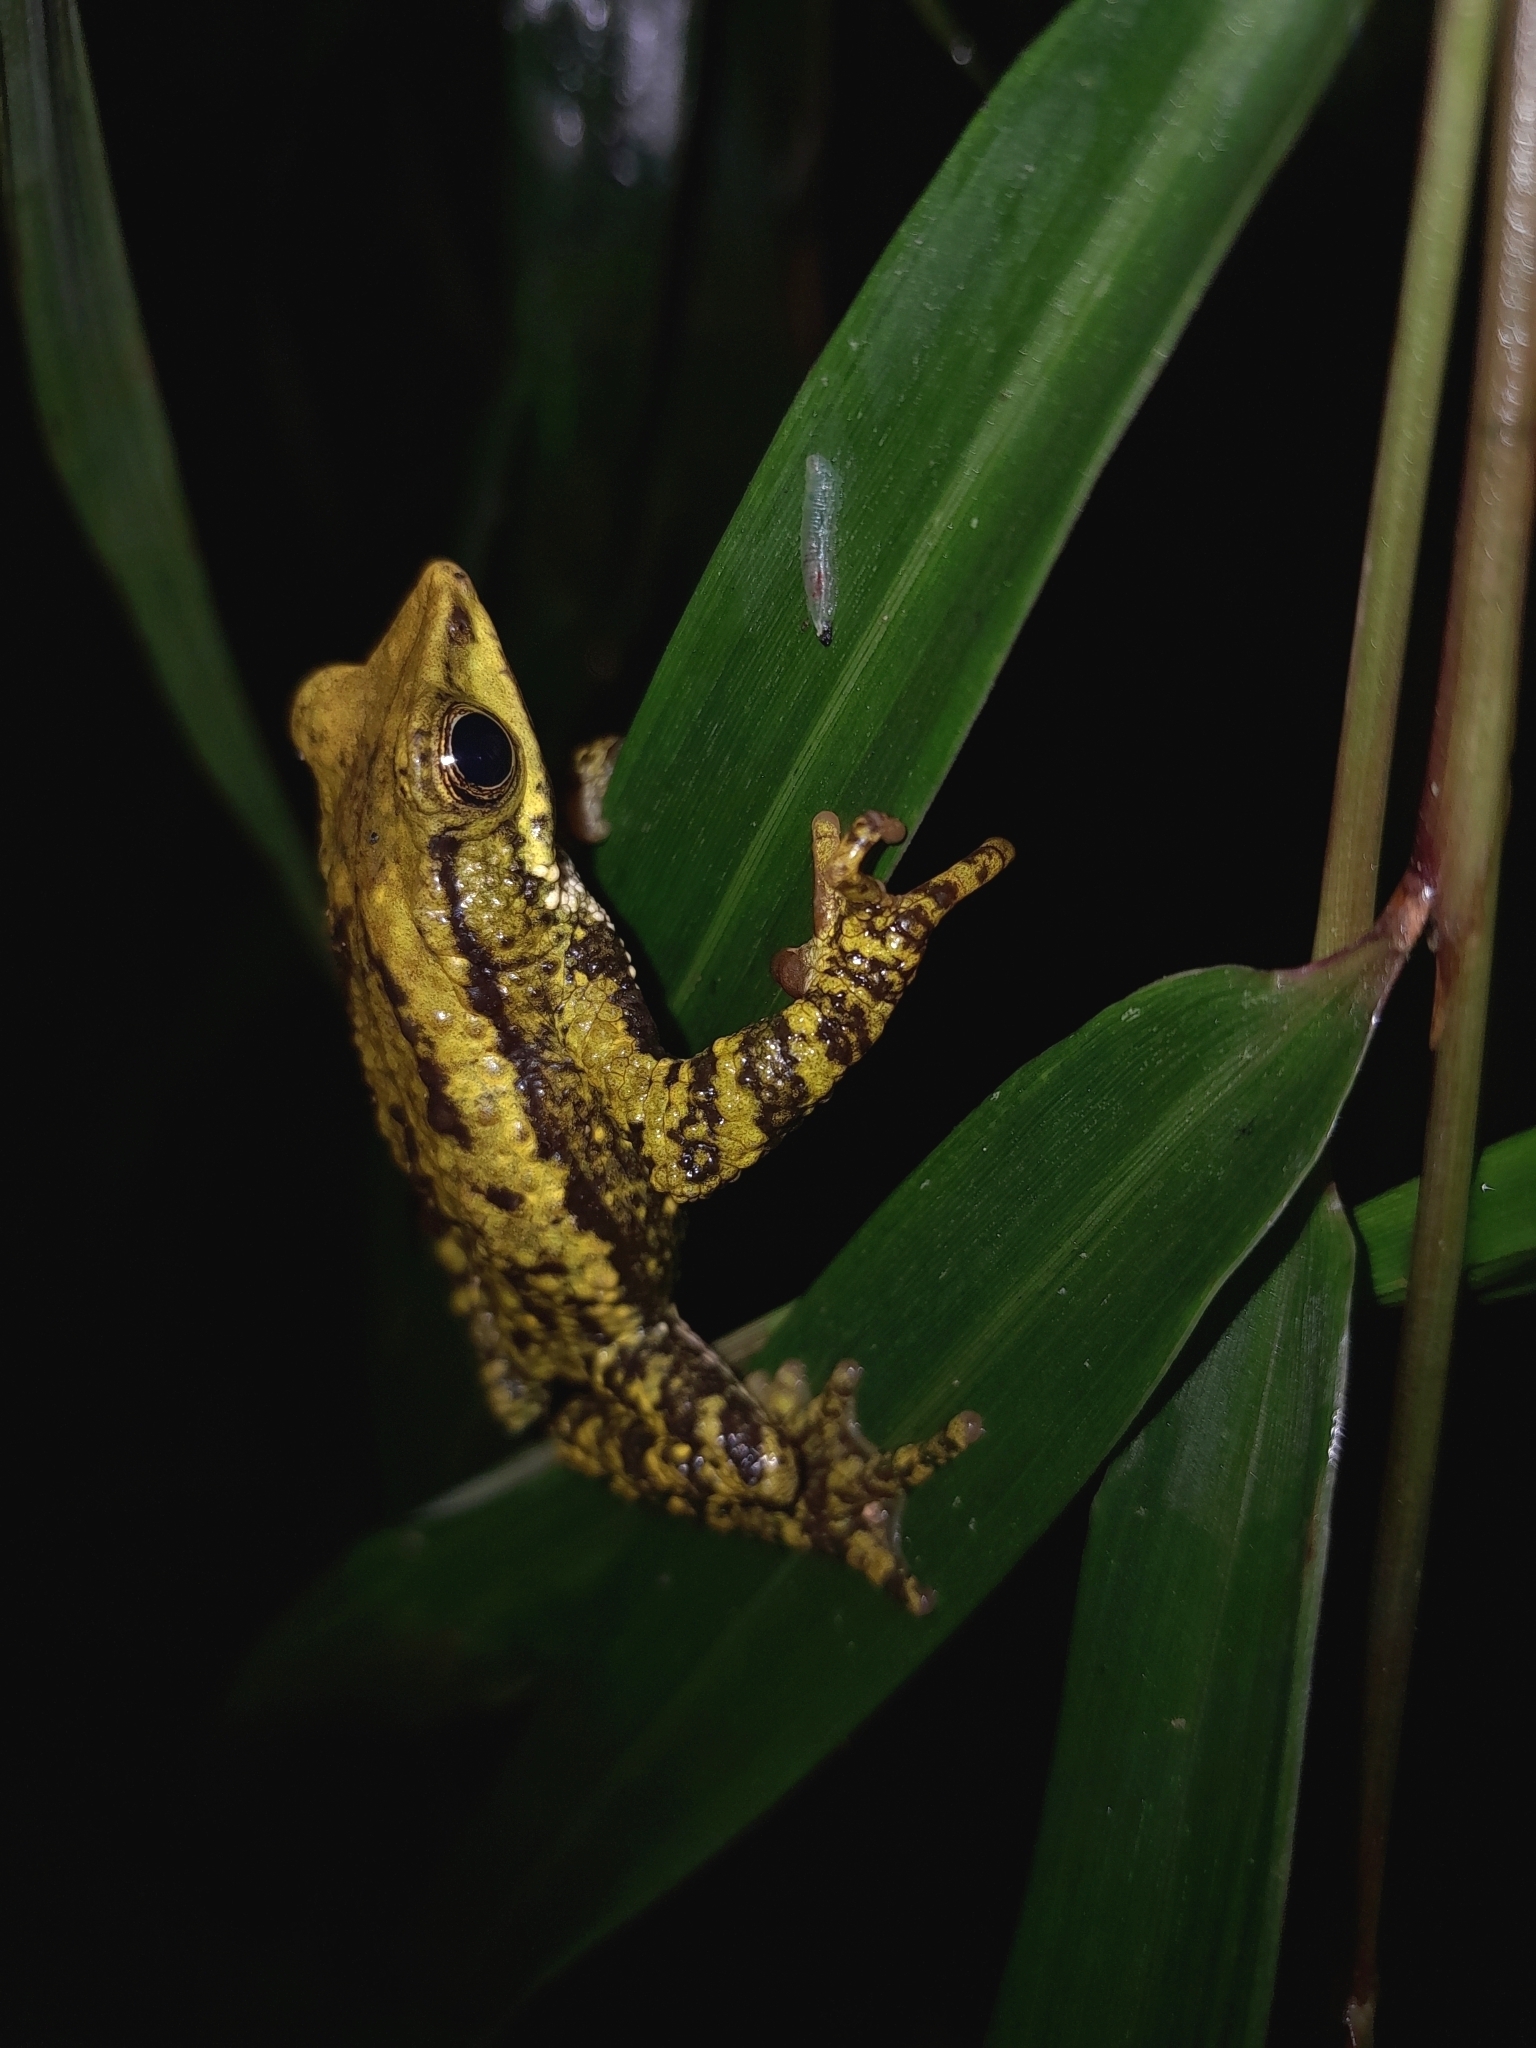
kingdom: Animalia
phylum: Chordata
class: Amphibia
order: Anura
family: Bufonidae
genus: Atelopus
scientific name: Atelopus laetissimus
